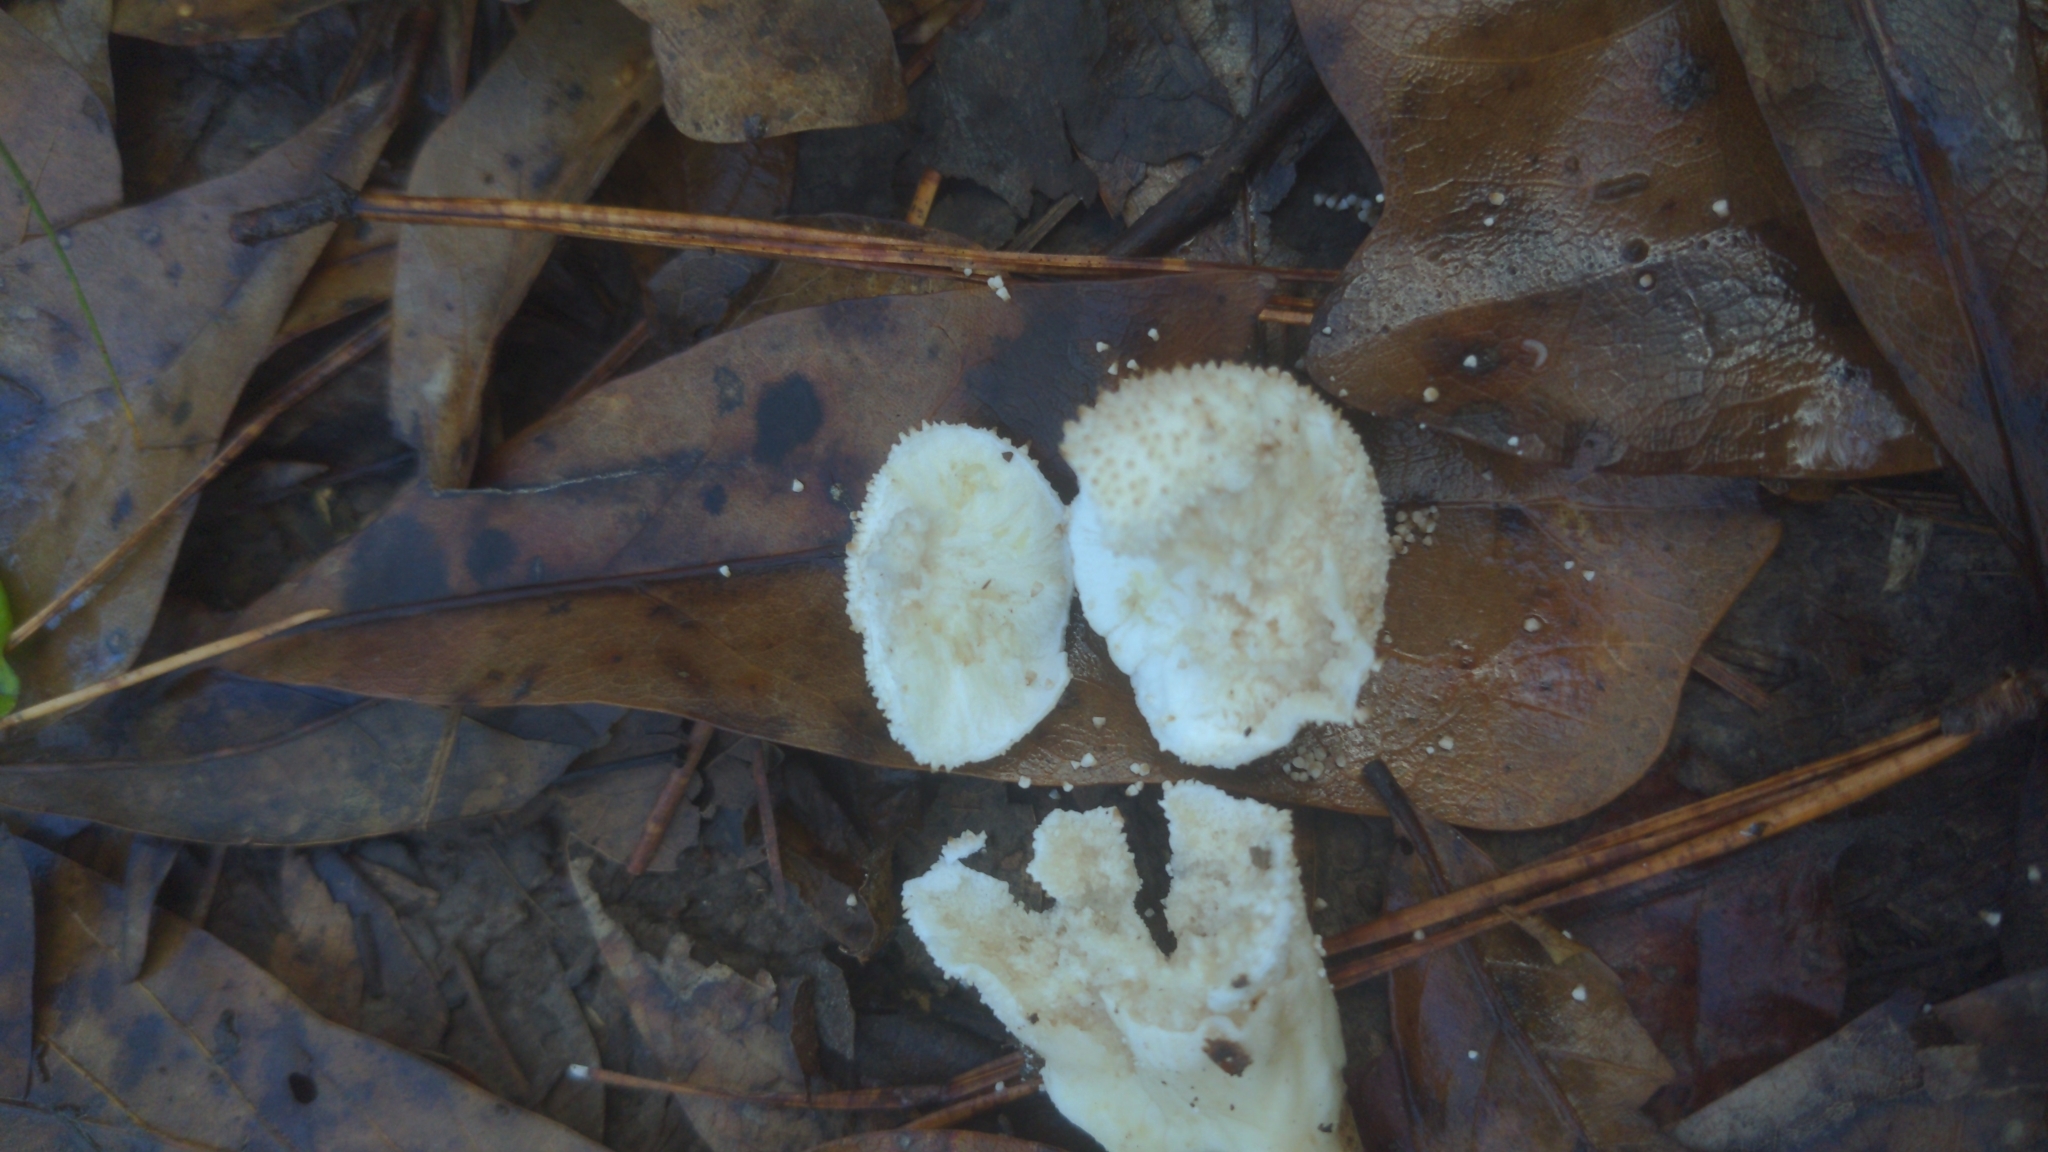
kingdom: Fungi
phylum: Basidiomycota
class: Agaricomycetes
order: Agaricales
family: Lycoperdaceae
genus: Lycoperdon
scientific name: Lycoperdon perlatum
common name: Common puffball
